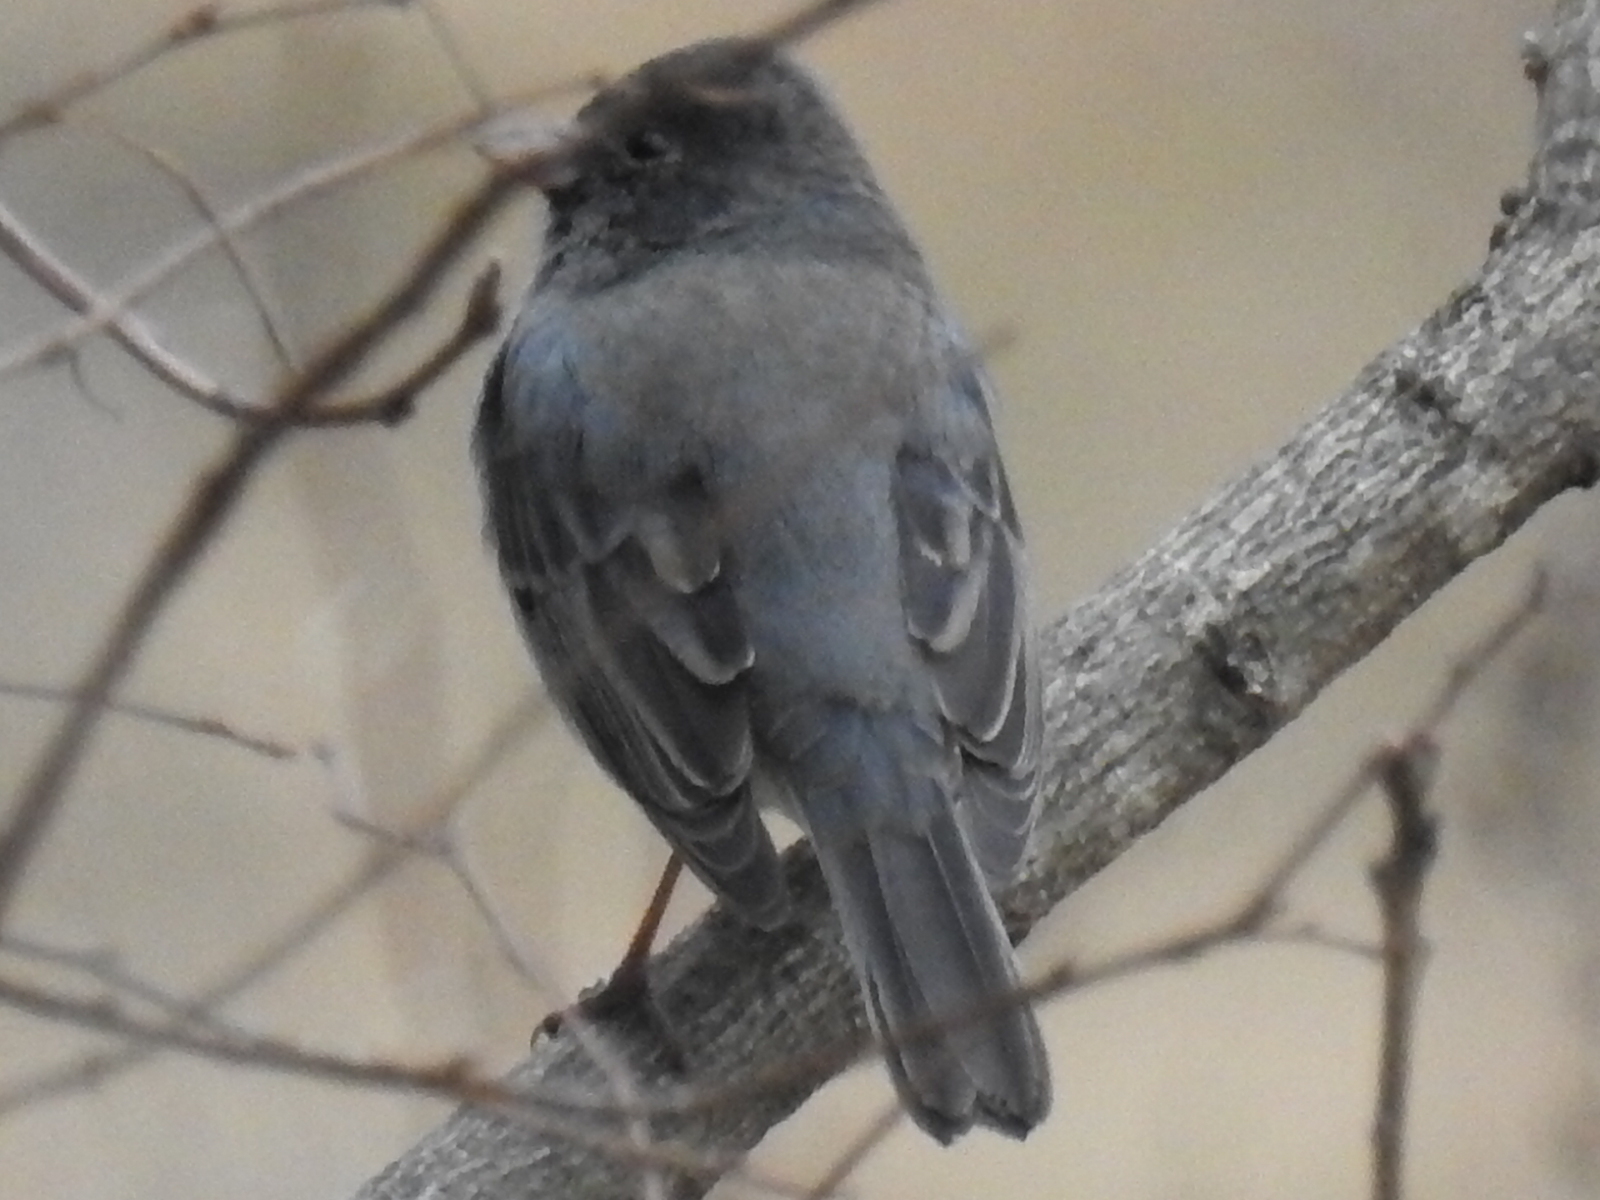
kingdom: Animalia
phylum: Chordata
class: Aves
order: Passeriformes
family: Passerellidae
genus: Junco
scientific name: Junco hyemalis
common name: Dark-eyed junco
